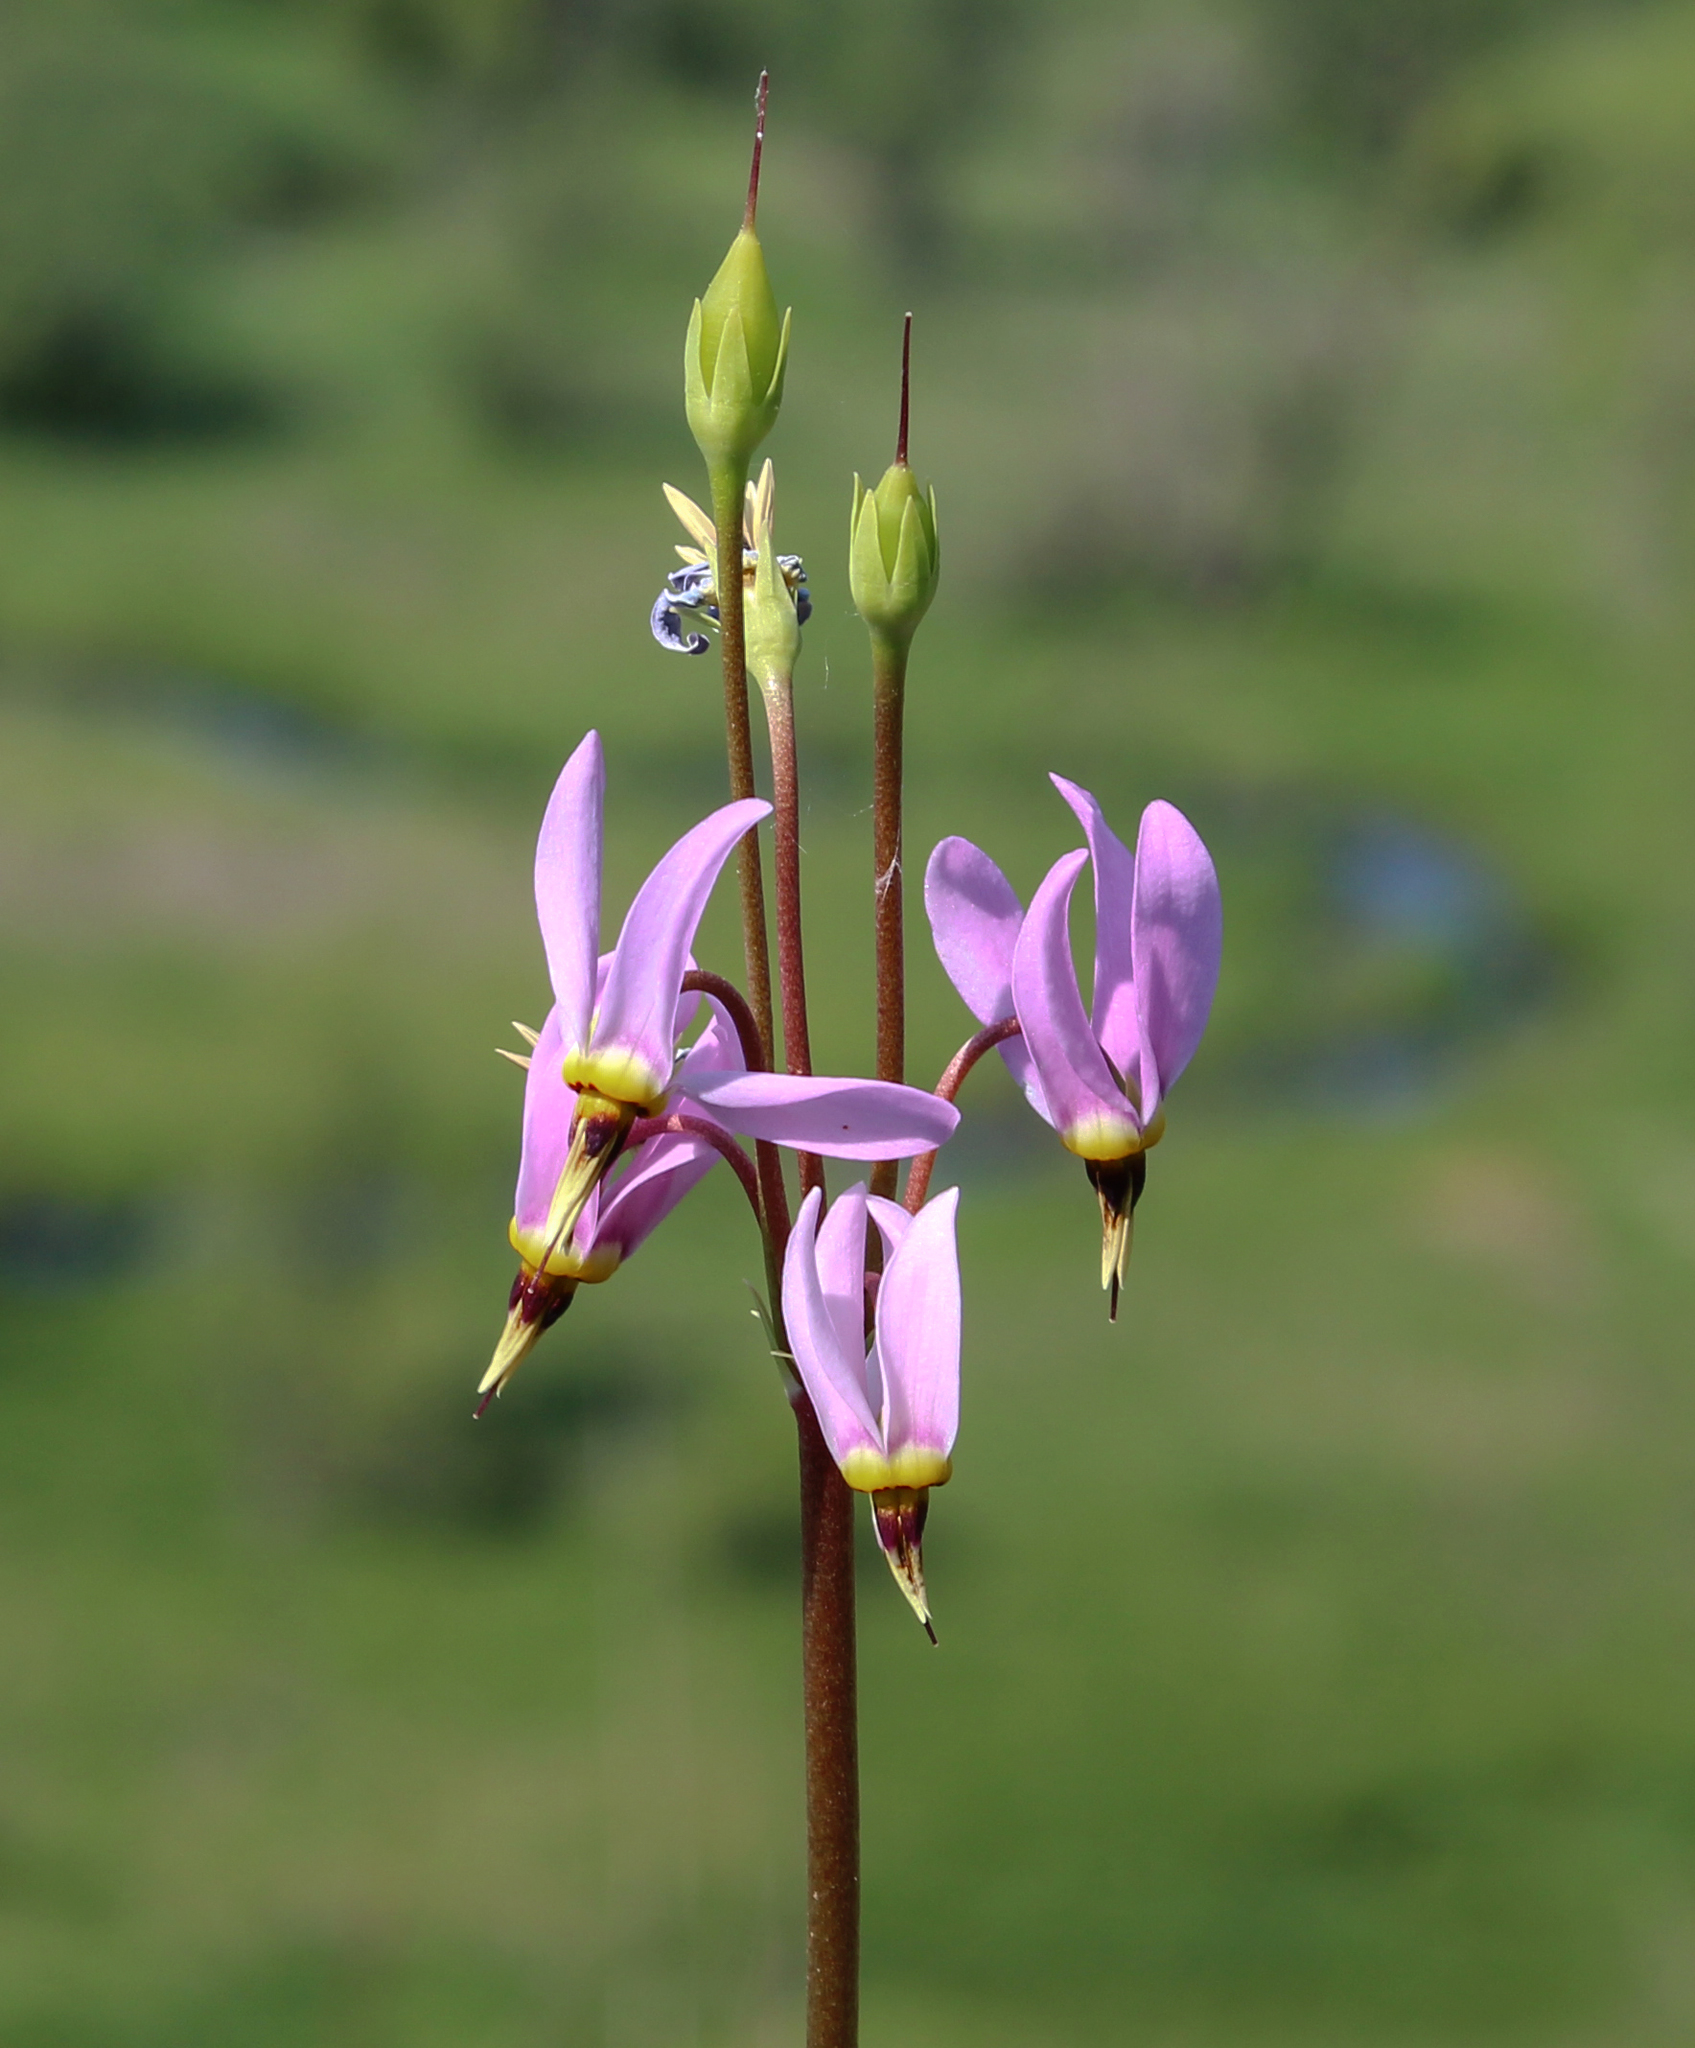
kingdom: Plantae
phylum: Tracheophyta
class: Magnoliopsida
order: Ericales
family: Primulaceae
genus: Dodecatheon
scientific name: Dodecatheon meadia
